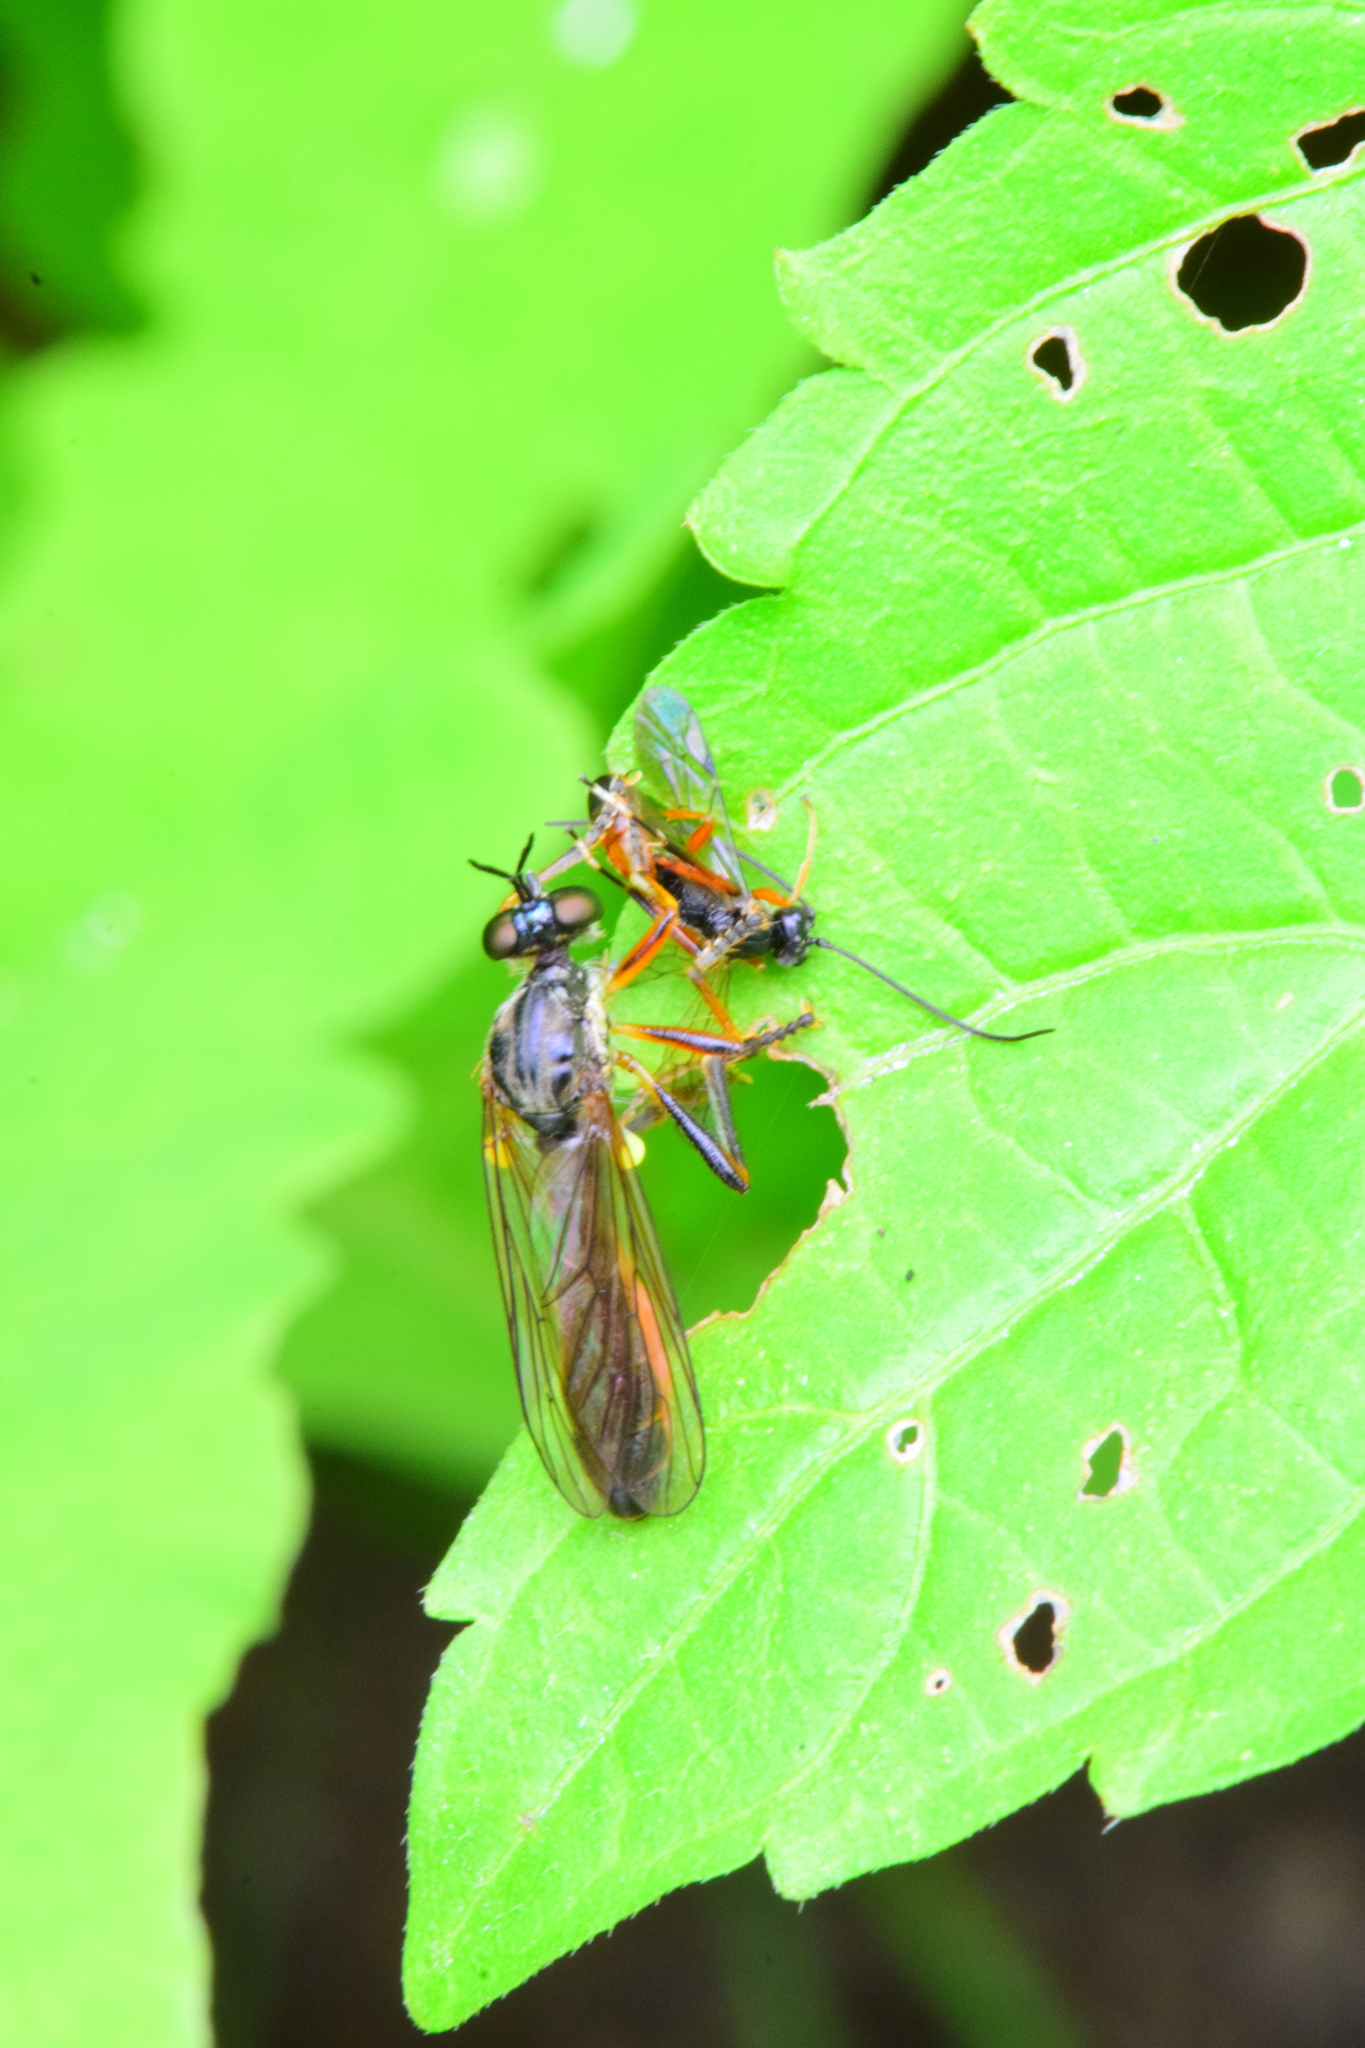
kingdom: Animalia
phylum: Arthropoda
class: Insecta
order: Diptera
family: Asilidae
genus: Dioctria
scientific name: Dioctria hyalipennis
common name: Stripe-legged robberfly
